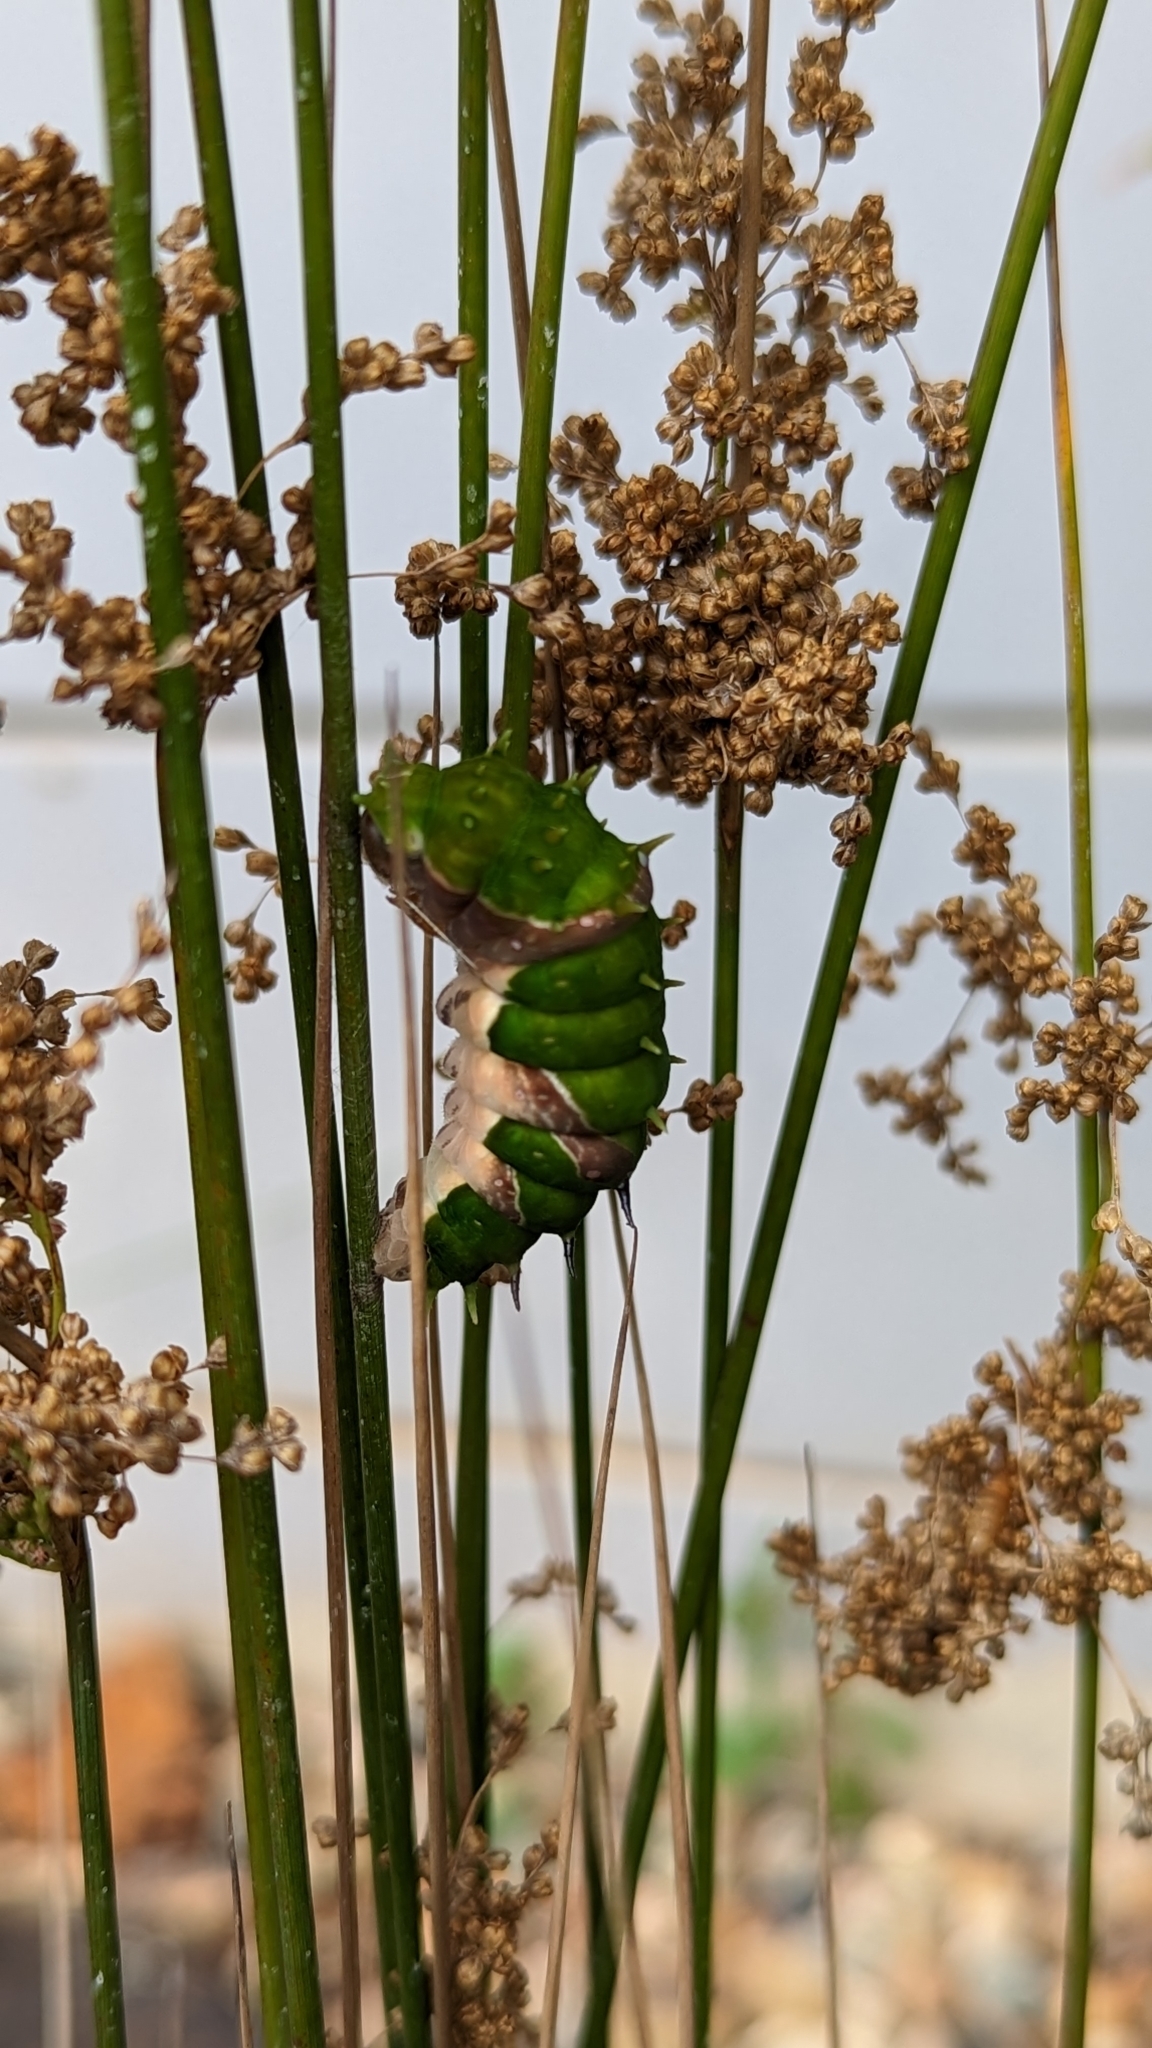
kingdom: Animalia
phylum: Arthropoda
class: Insecta
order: Lepidoptera
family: Papilionidae
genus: Papilio
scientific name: Papilio aegeus
